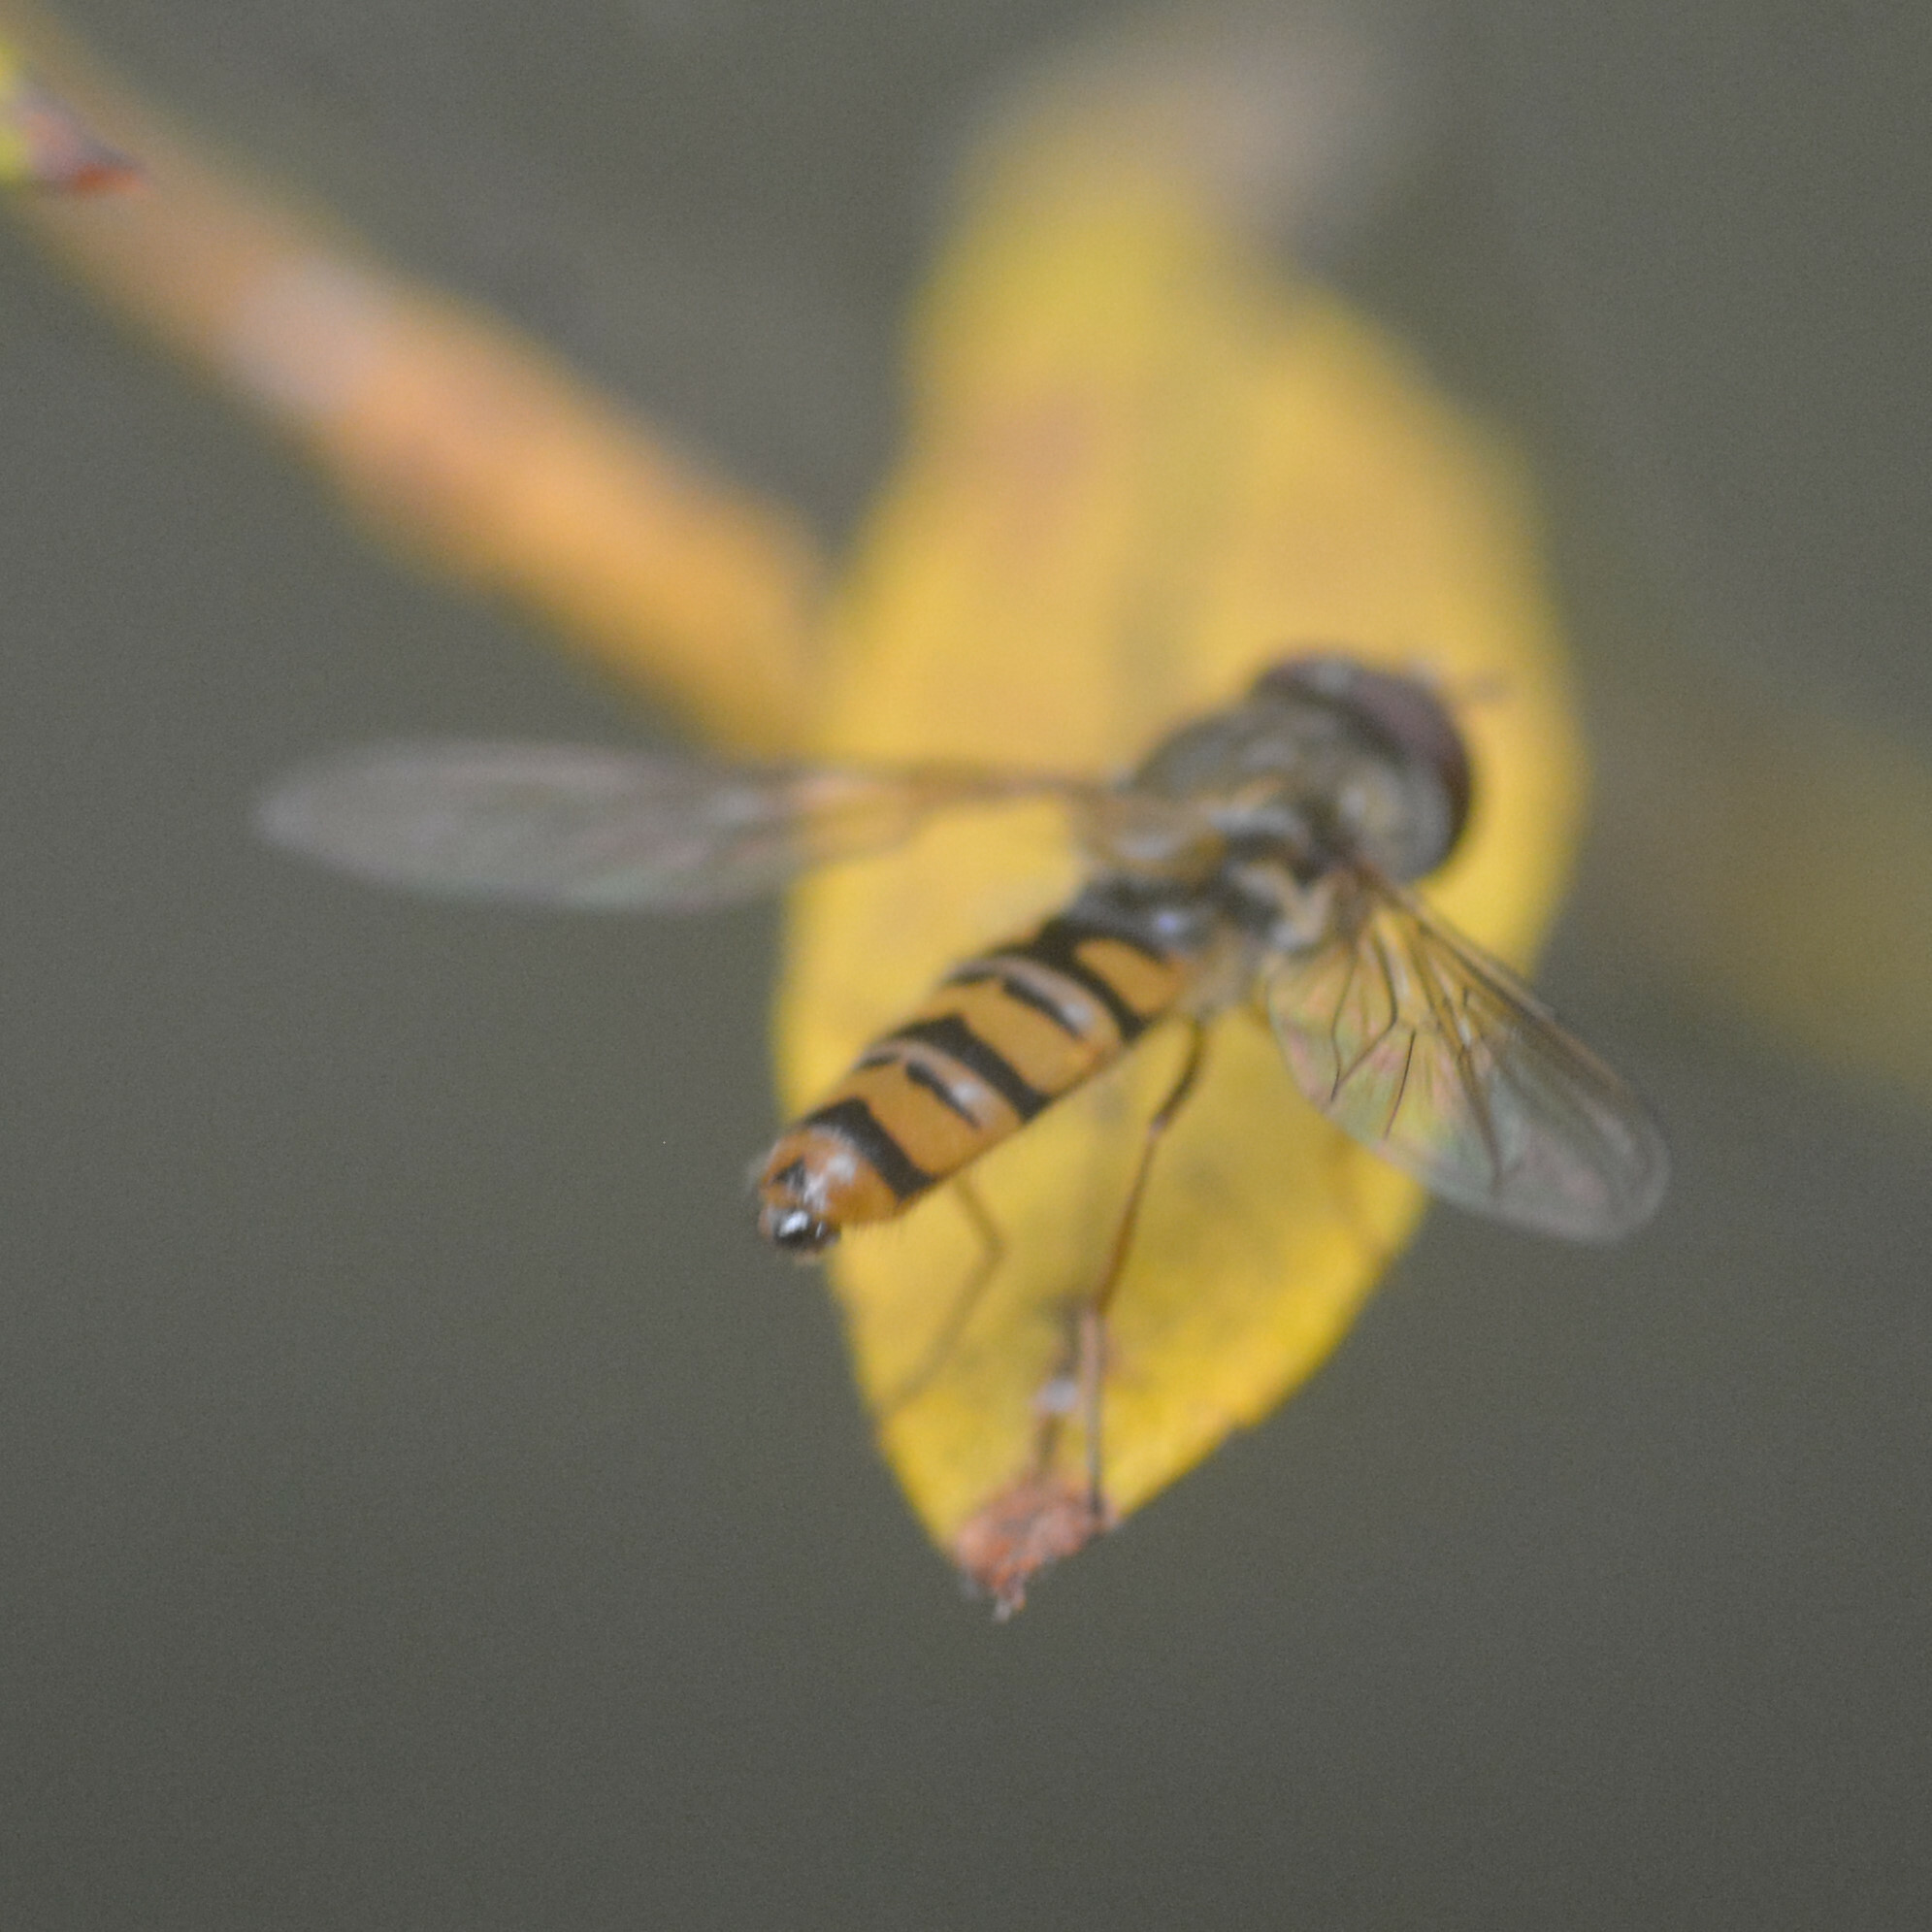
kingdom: Animalia
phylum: Arthropoda
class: Insecta
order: Diptera
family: Syrphidae
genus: Episyrphus
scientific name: Episyrphus balteatus
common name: Marmalade hoverfly
